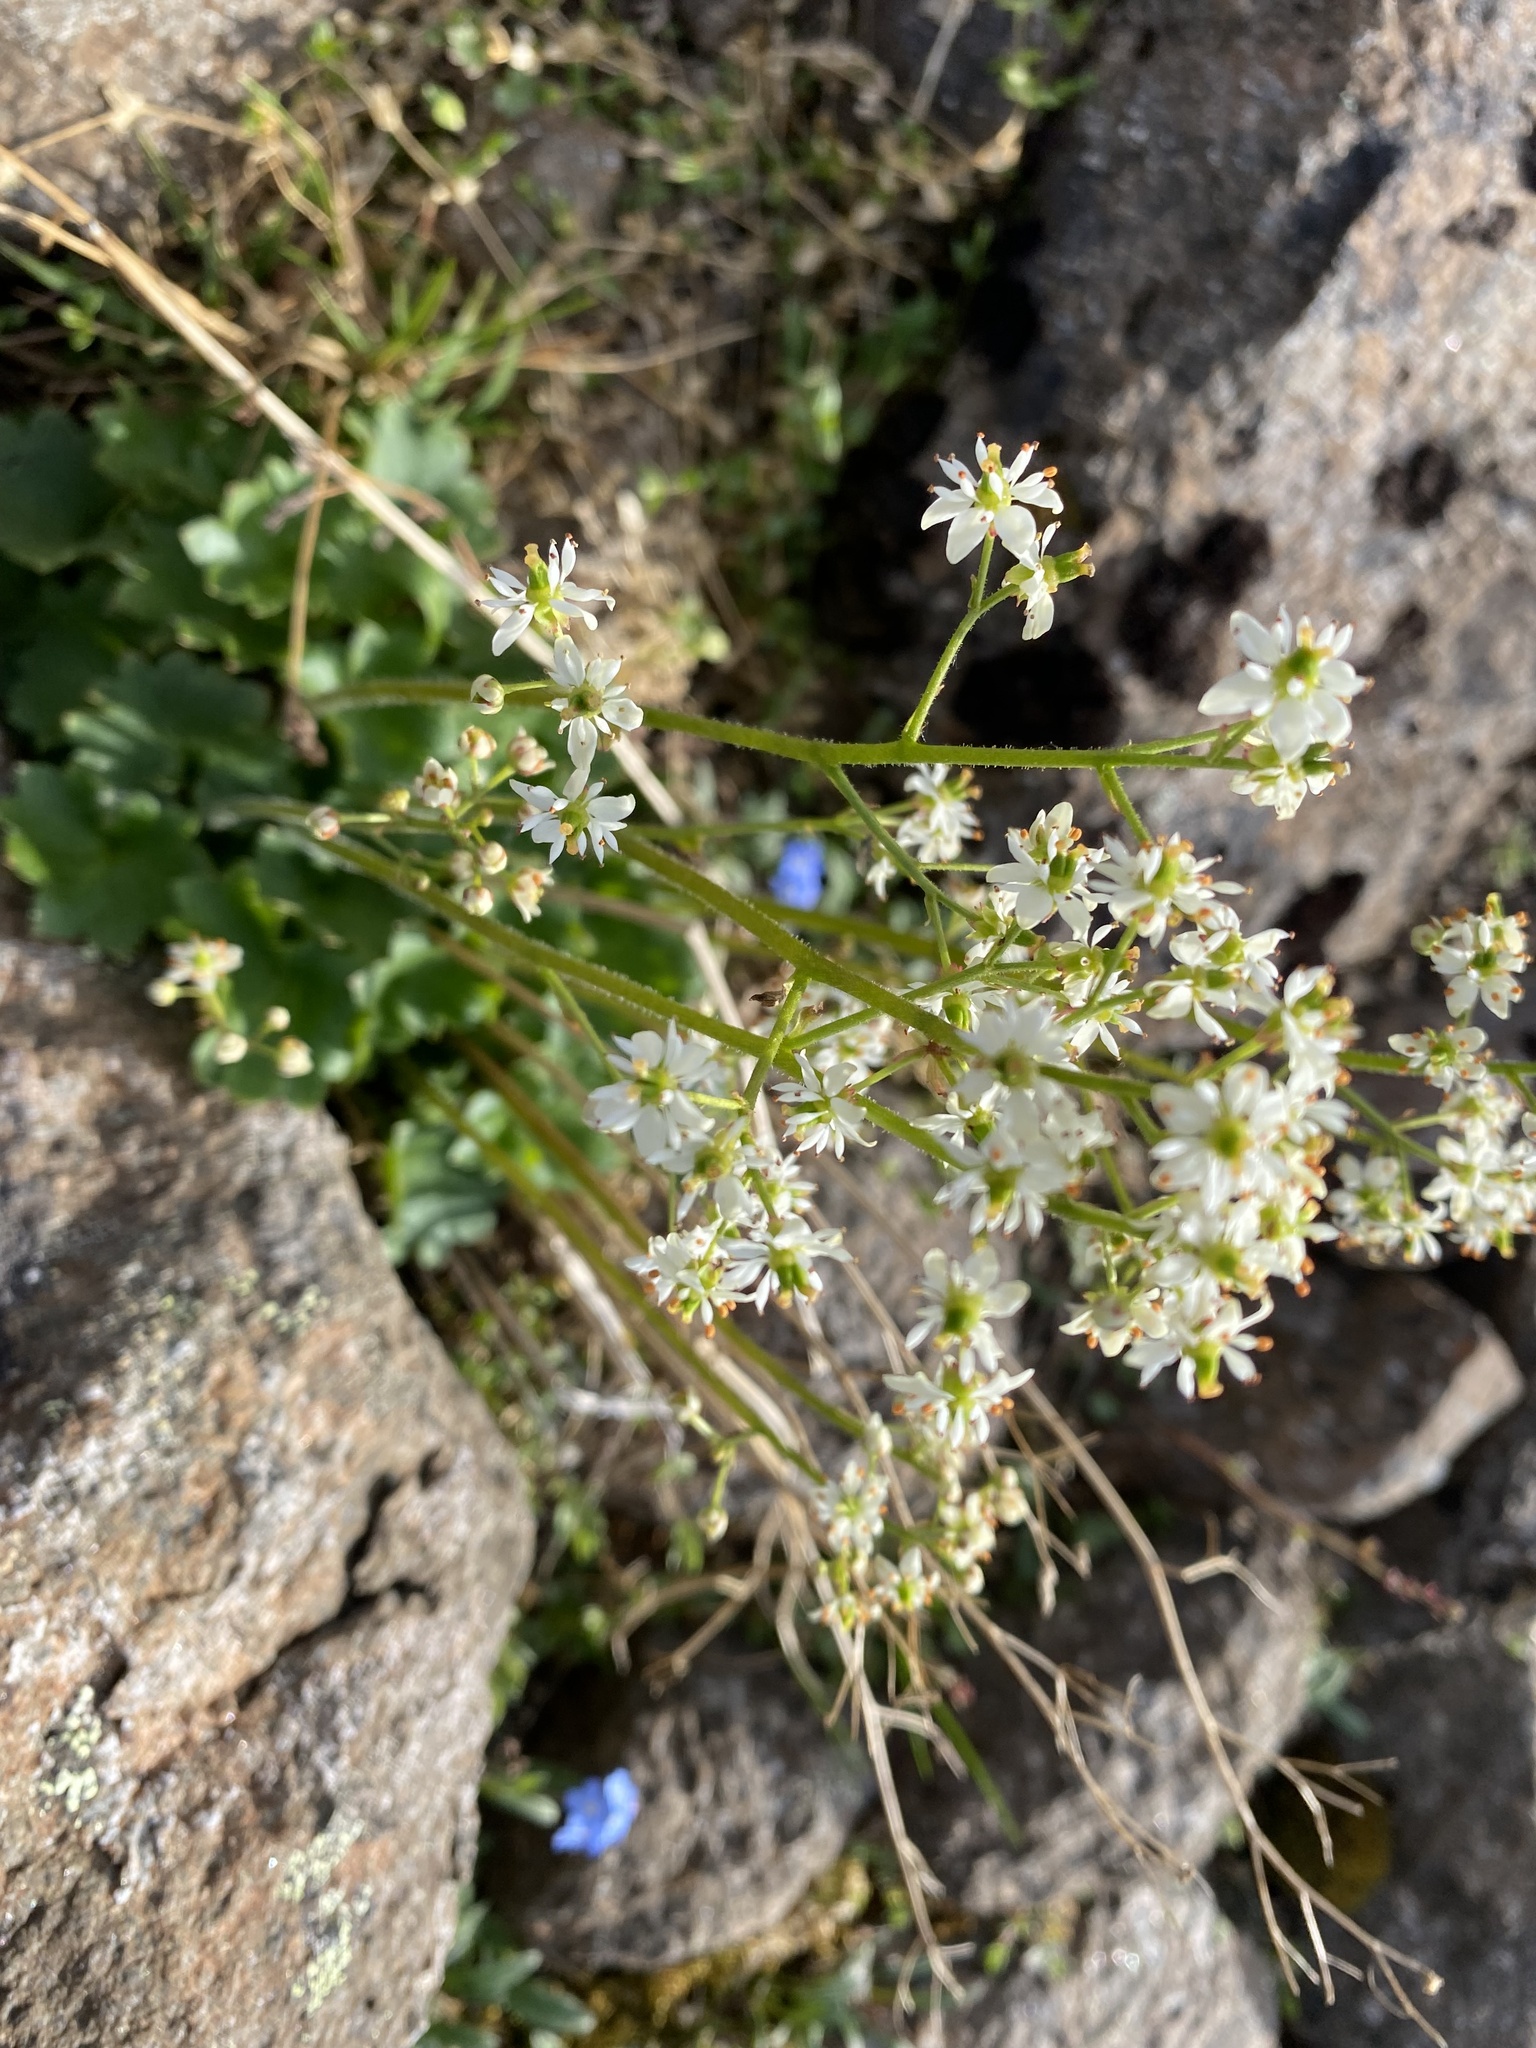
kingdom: Plantae
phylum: Tracheophyta
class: Magnoliopsida
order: Saxifragales
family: Saxifragaceae
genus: Micranthes
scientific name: Micranthes nelsoniana
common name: Nelson's saxifrage
